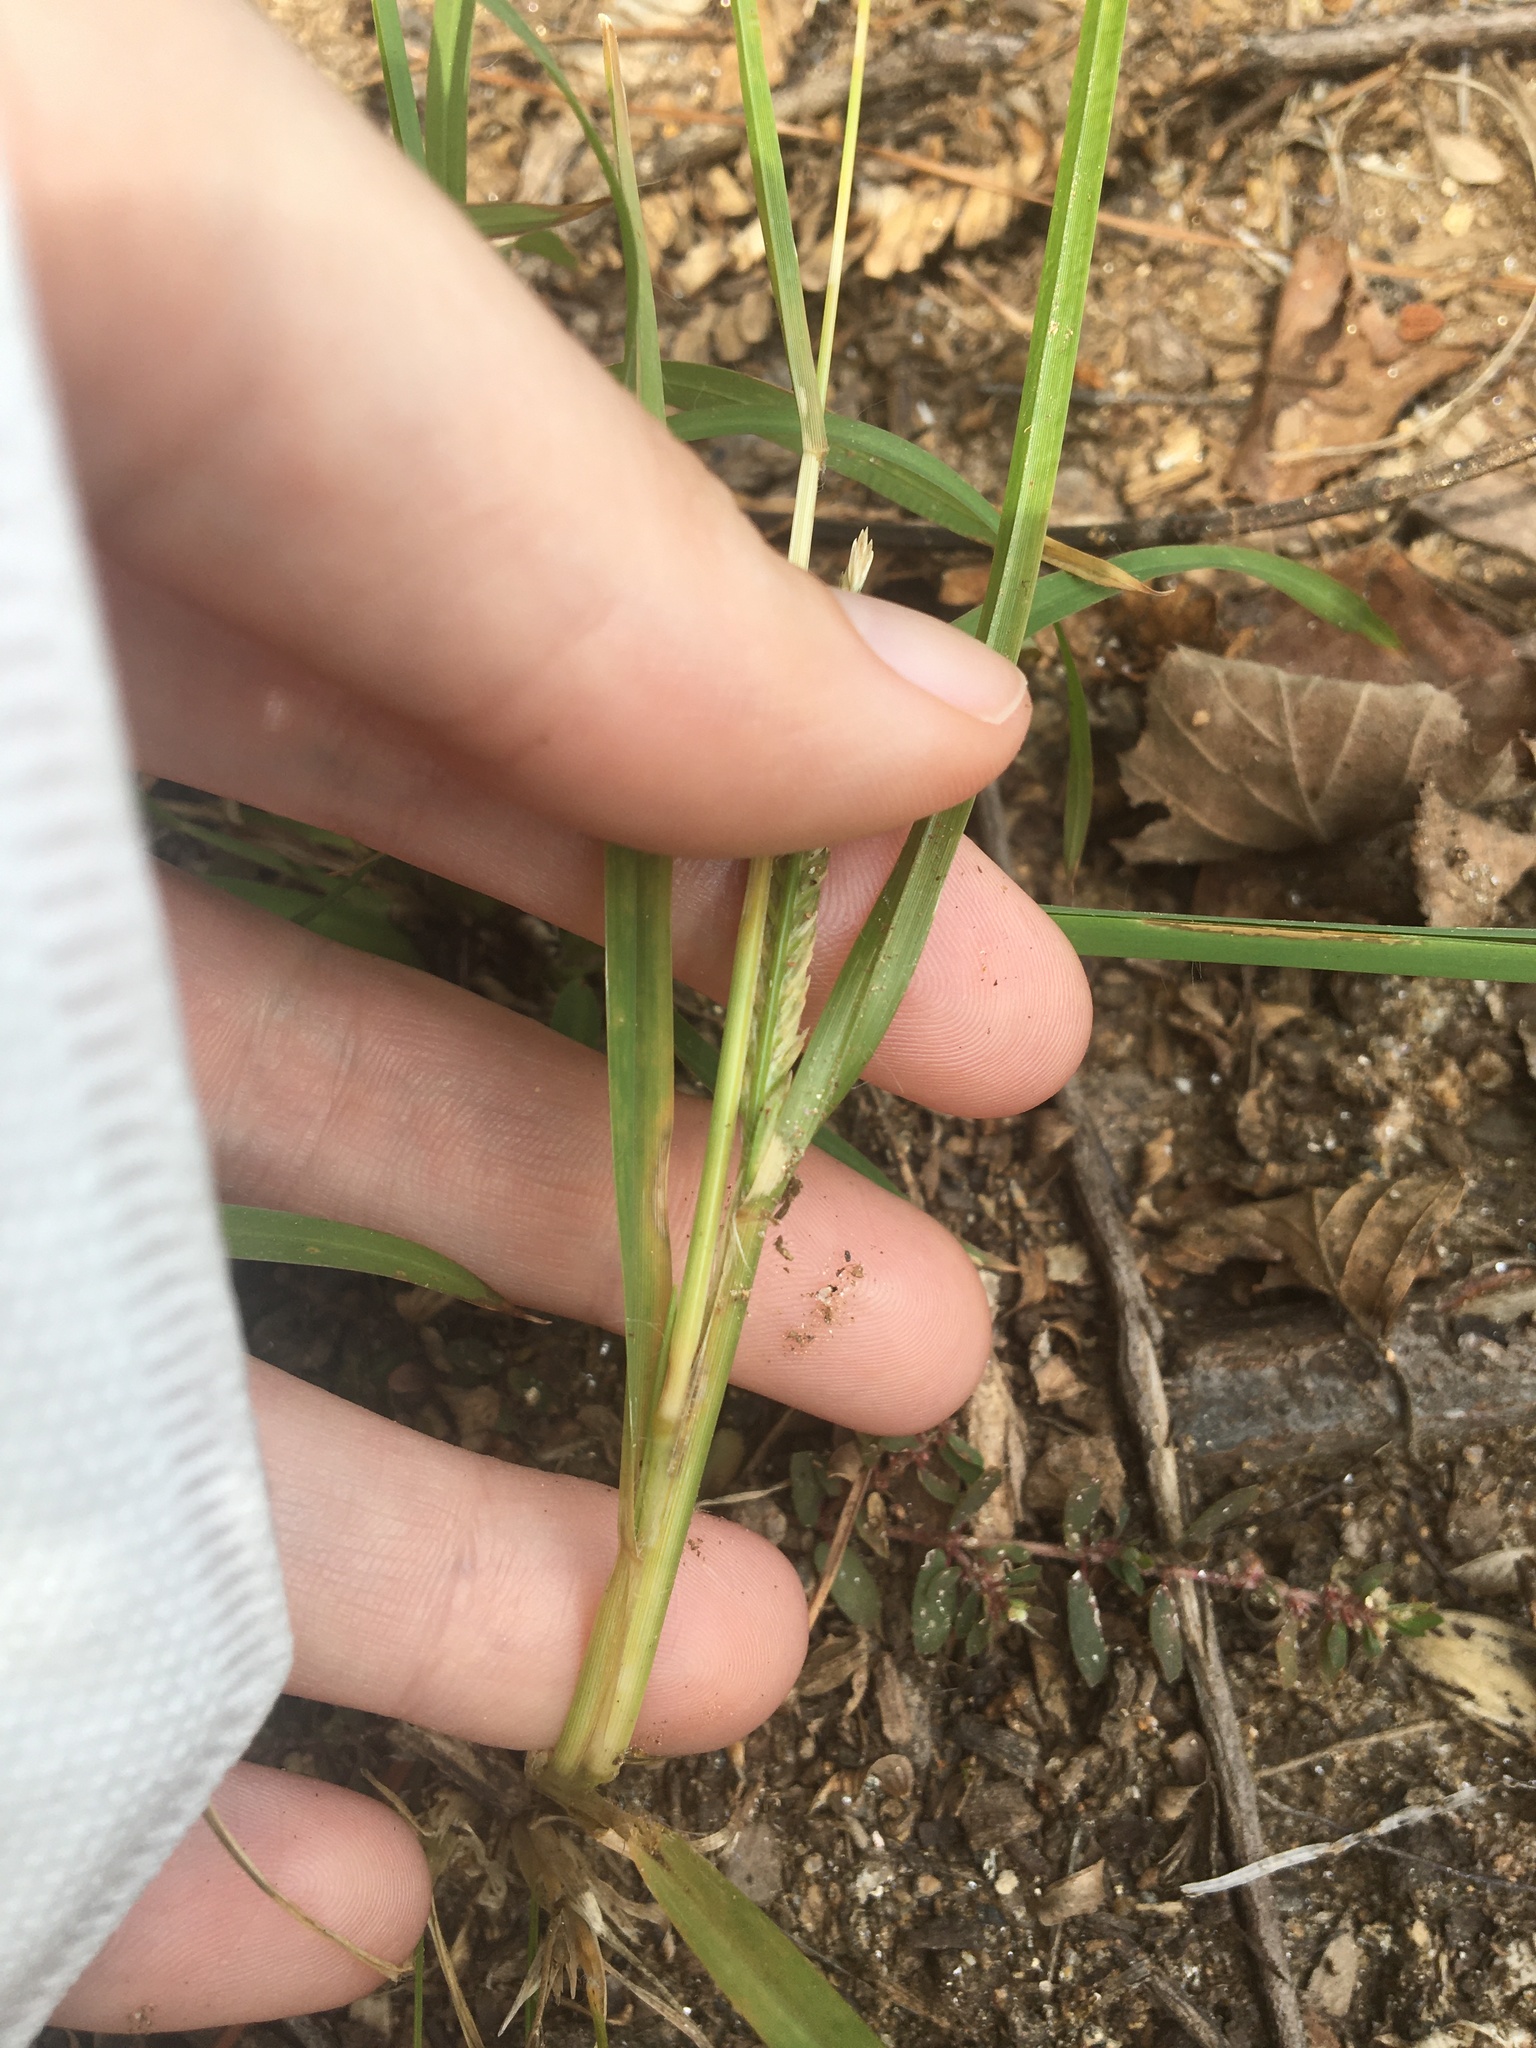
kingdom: Plantae
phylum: Tracheophyta
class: Liliopsida
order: Poales
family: Poaceae
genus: Eleusine
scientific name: Eleusine indica
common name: Yard-grass
